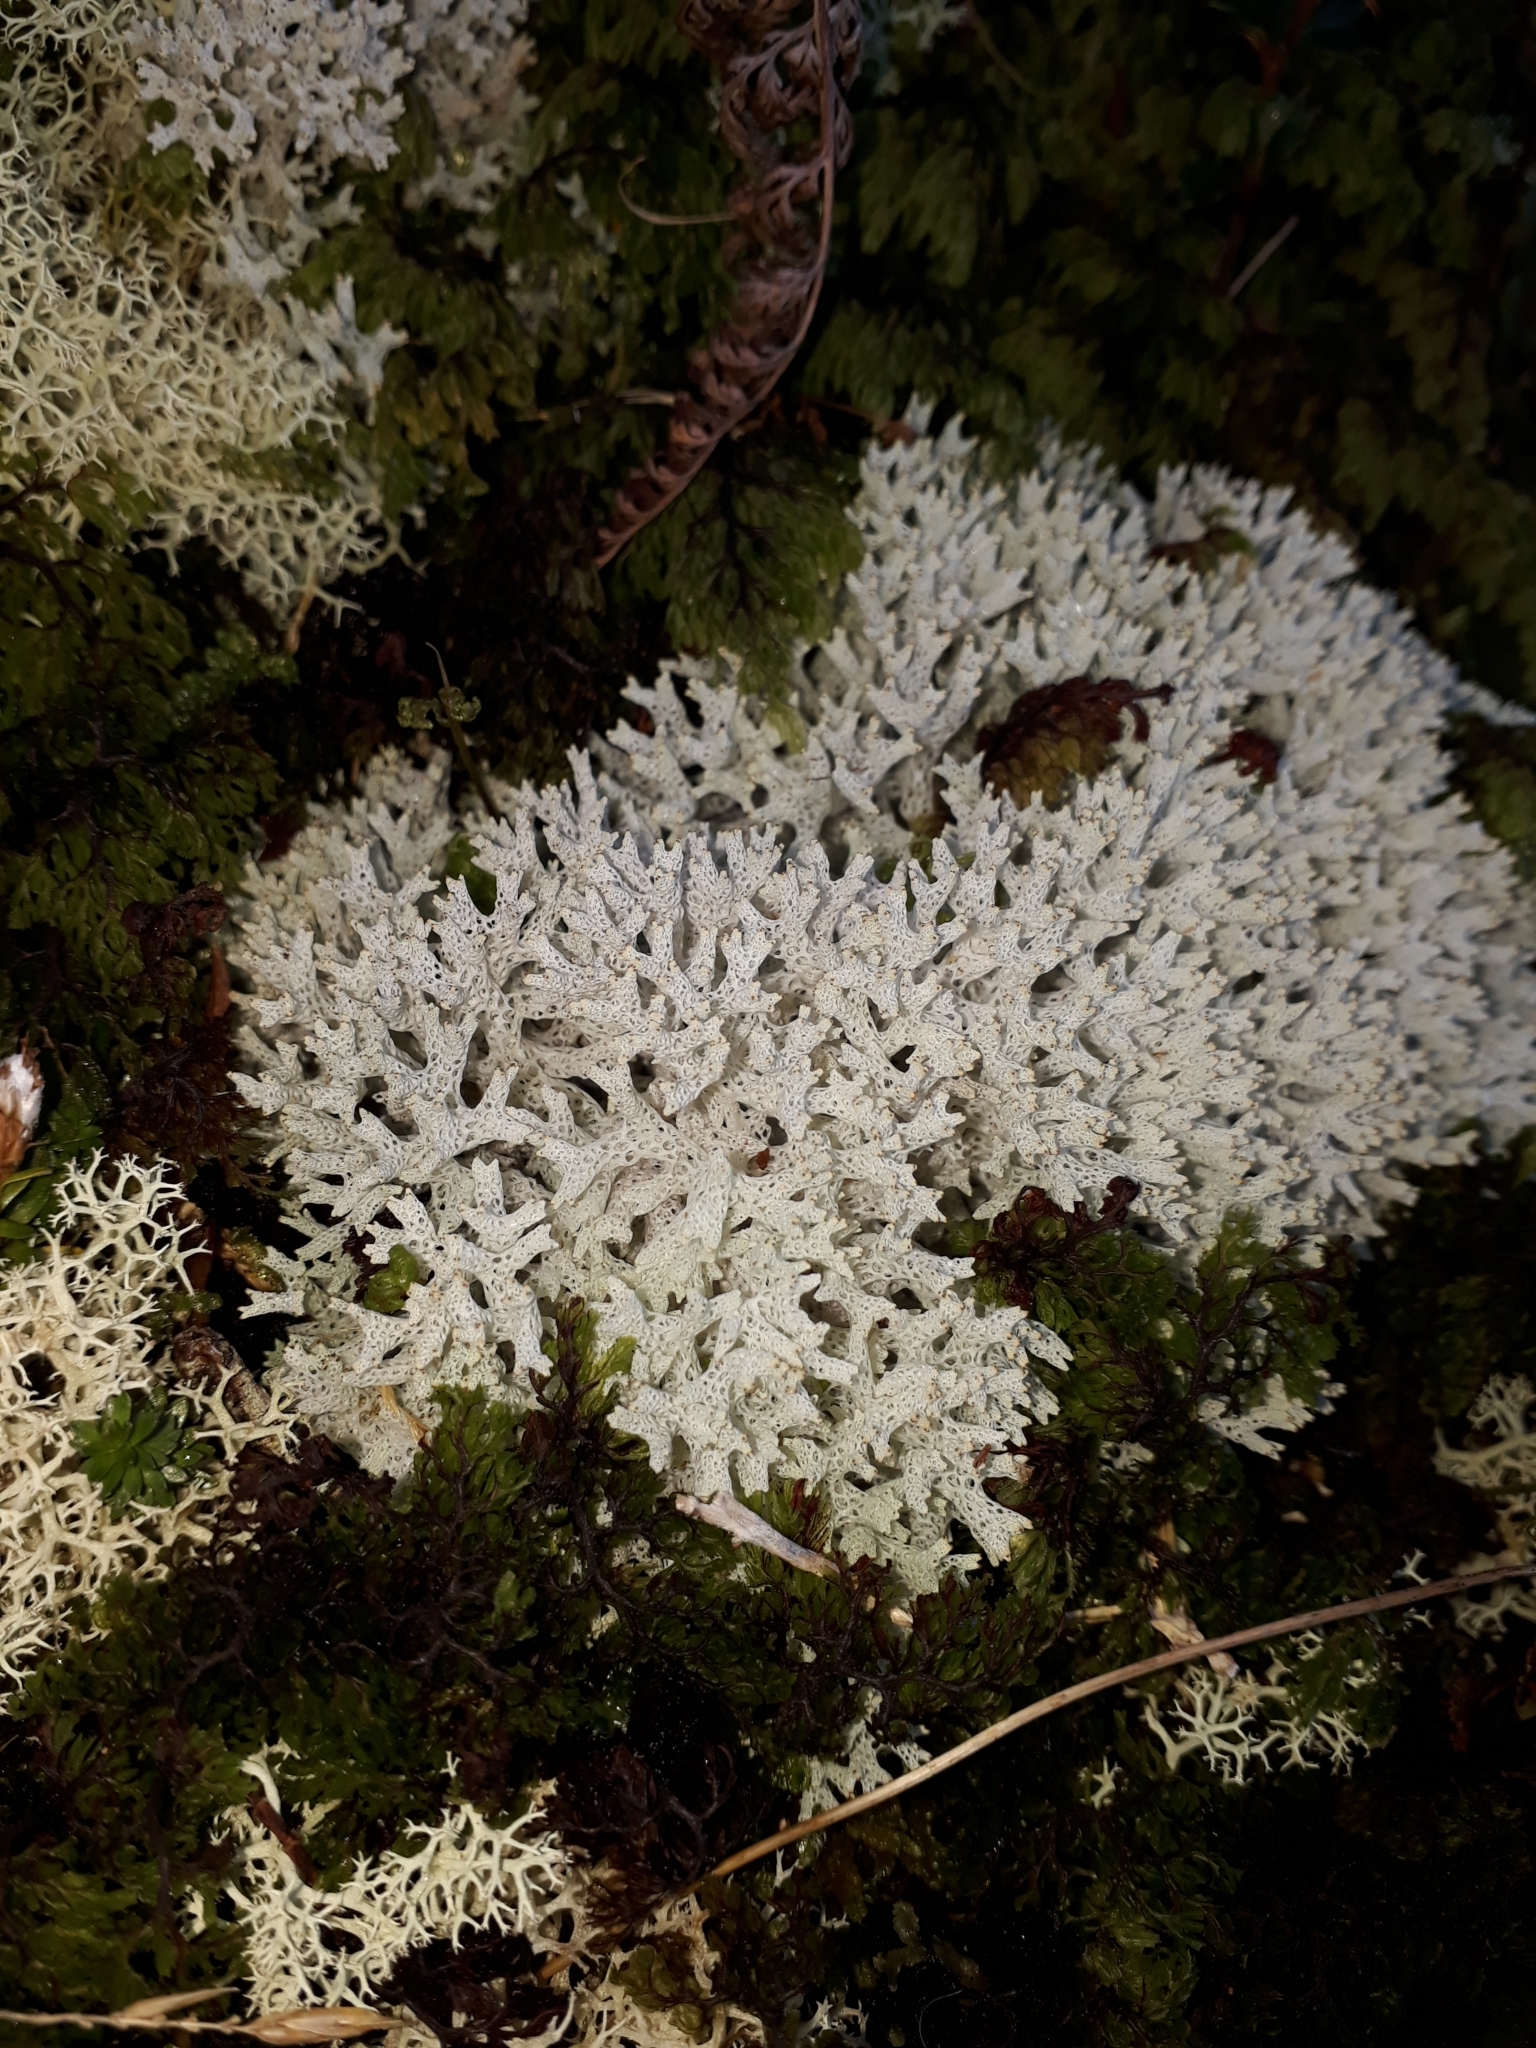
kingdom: Fungi
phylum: Ascomycota
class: Lecanoromycetes
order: Lecanorales
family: Cladoniaceae
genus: Pulchrocladia
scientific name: Pulchrocladia retipora
